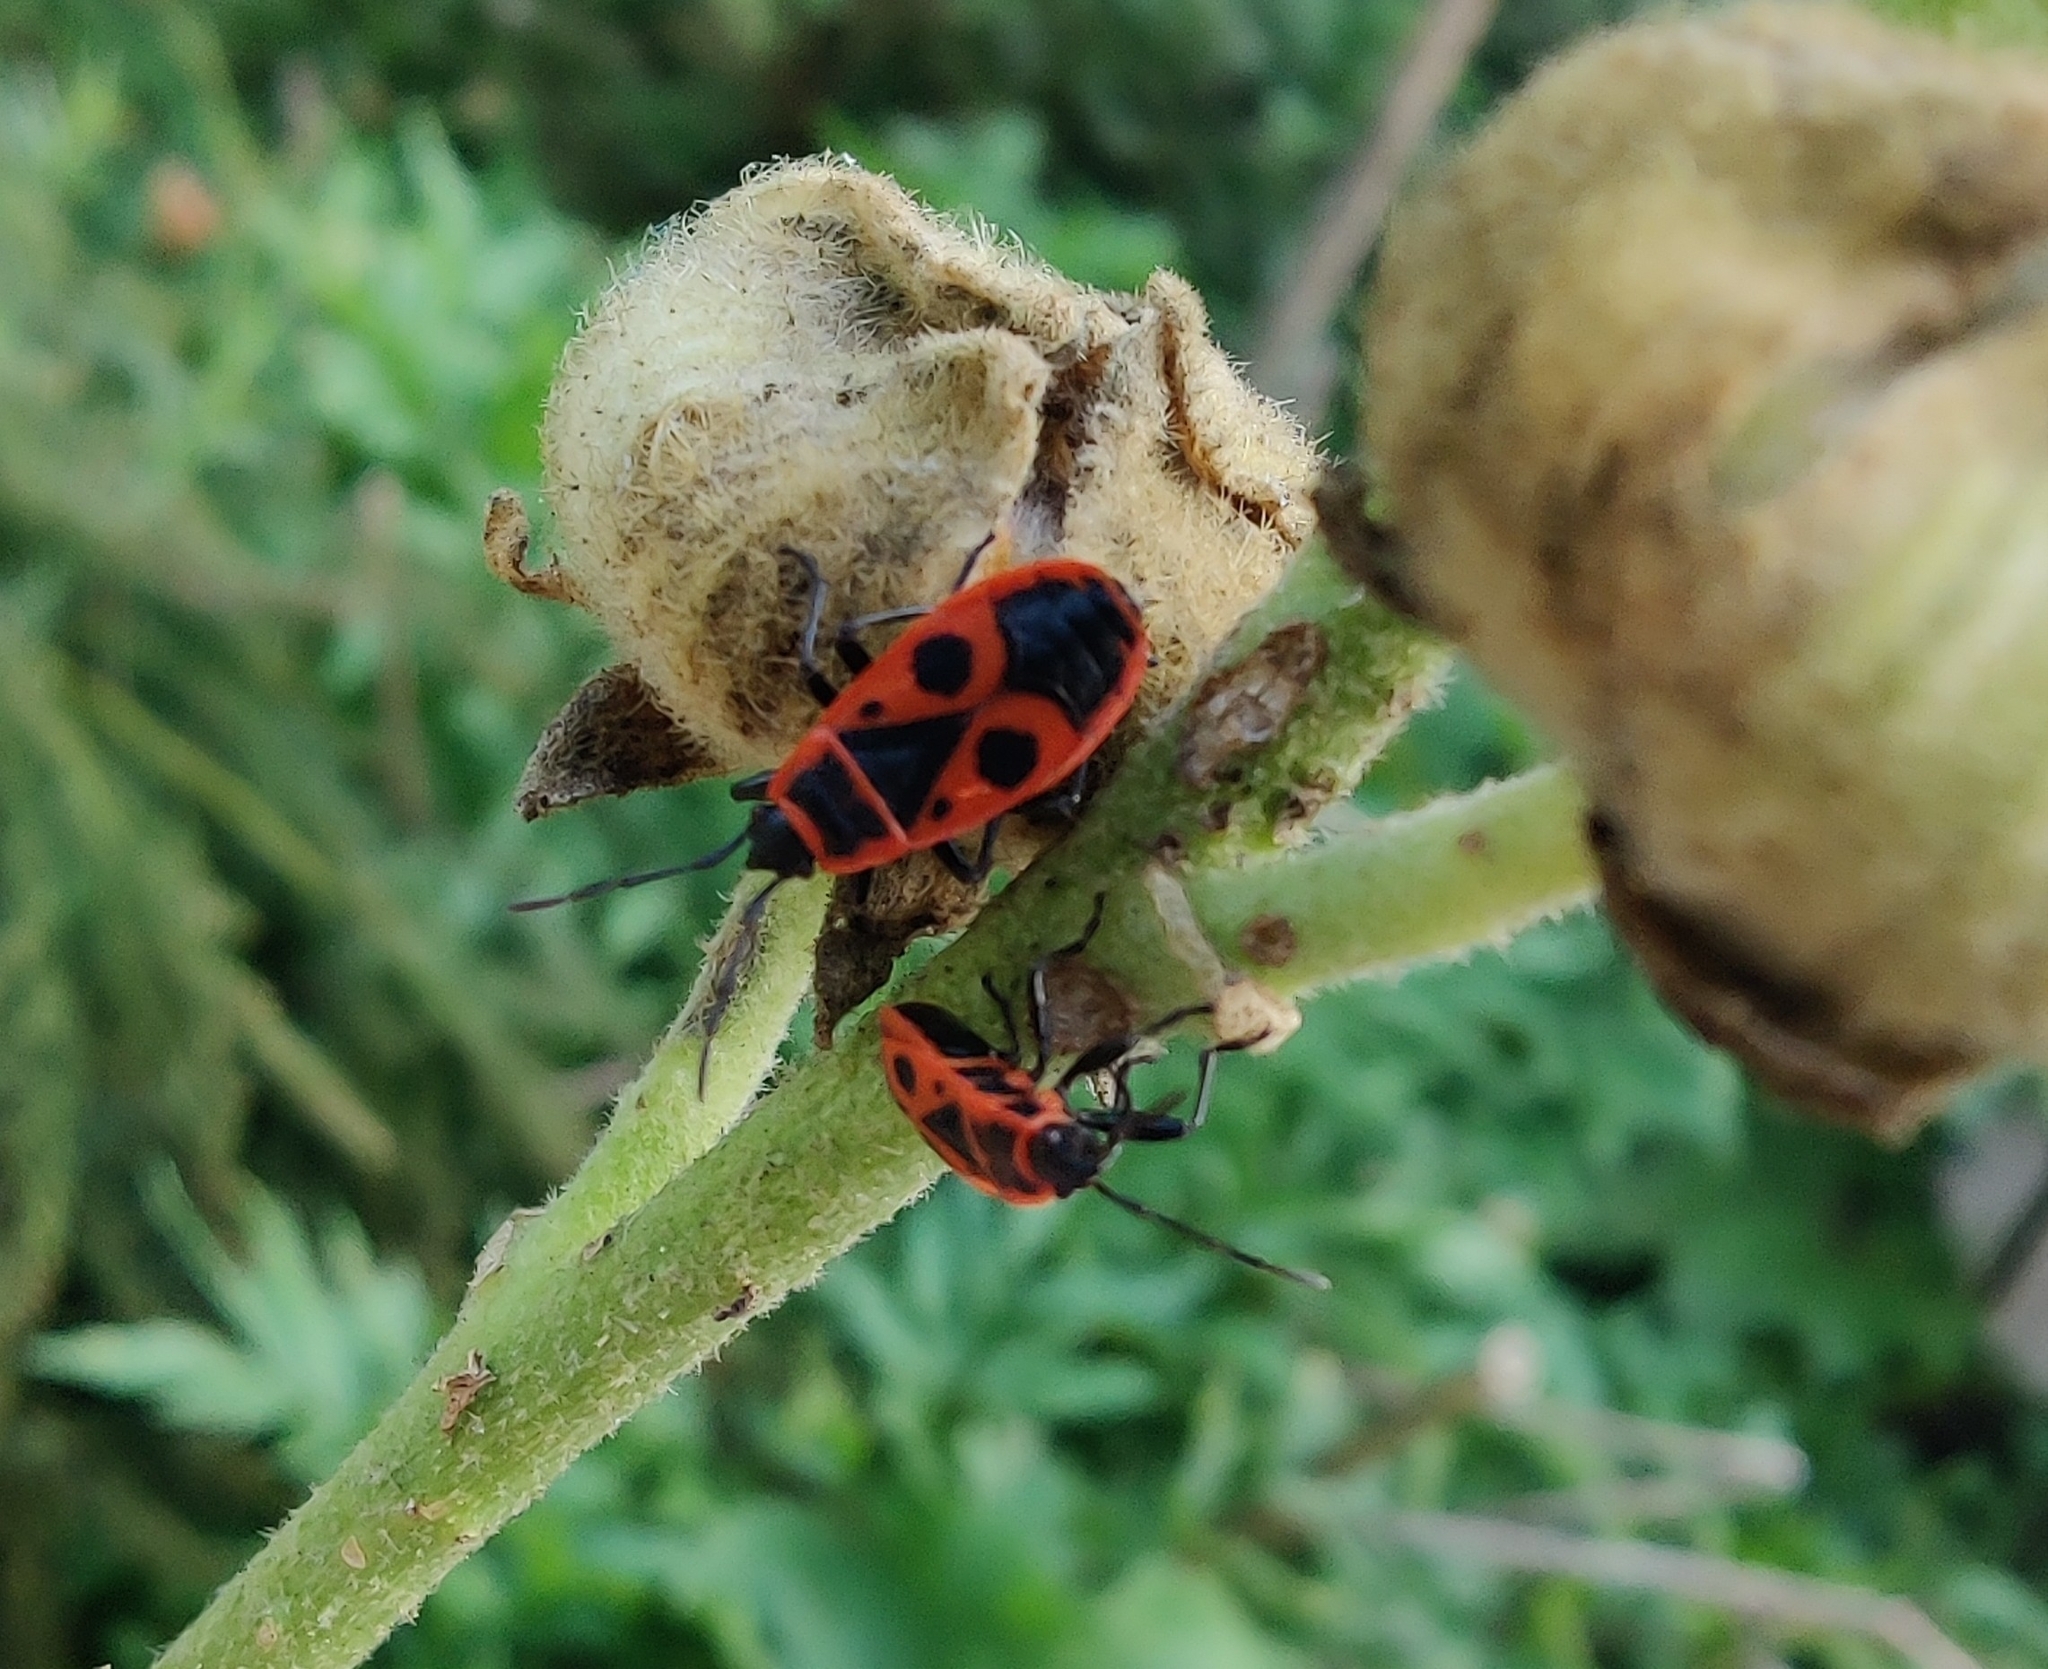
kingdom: Animalia
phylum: Arthropoda
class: Insecta
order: Hemiptera
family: Pyrrhocoridae
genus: Pyrrhocoris
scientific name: Pyrrhocoris apterus
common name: Firebug
